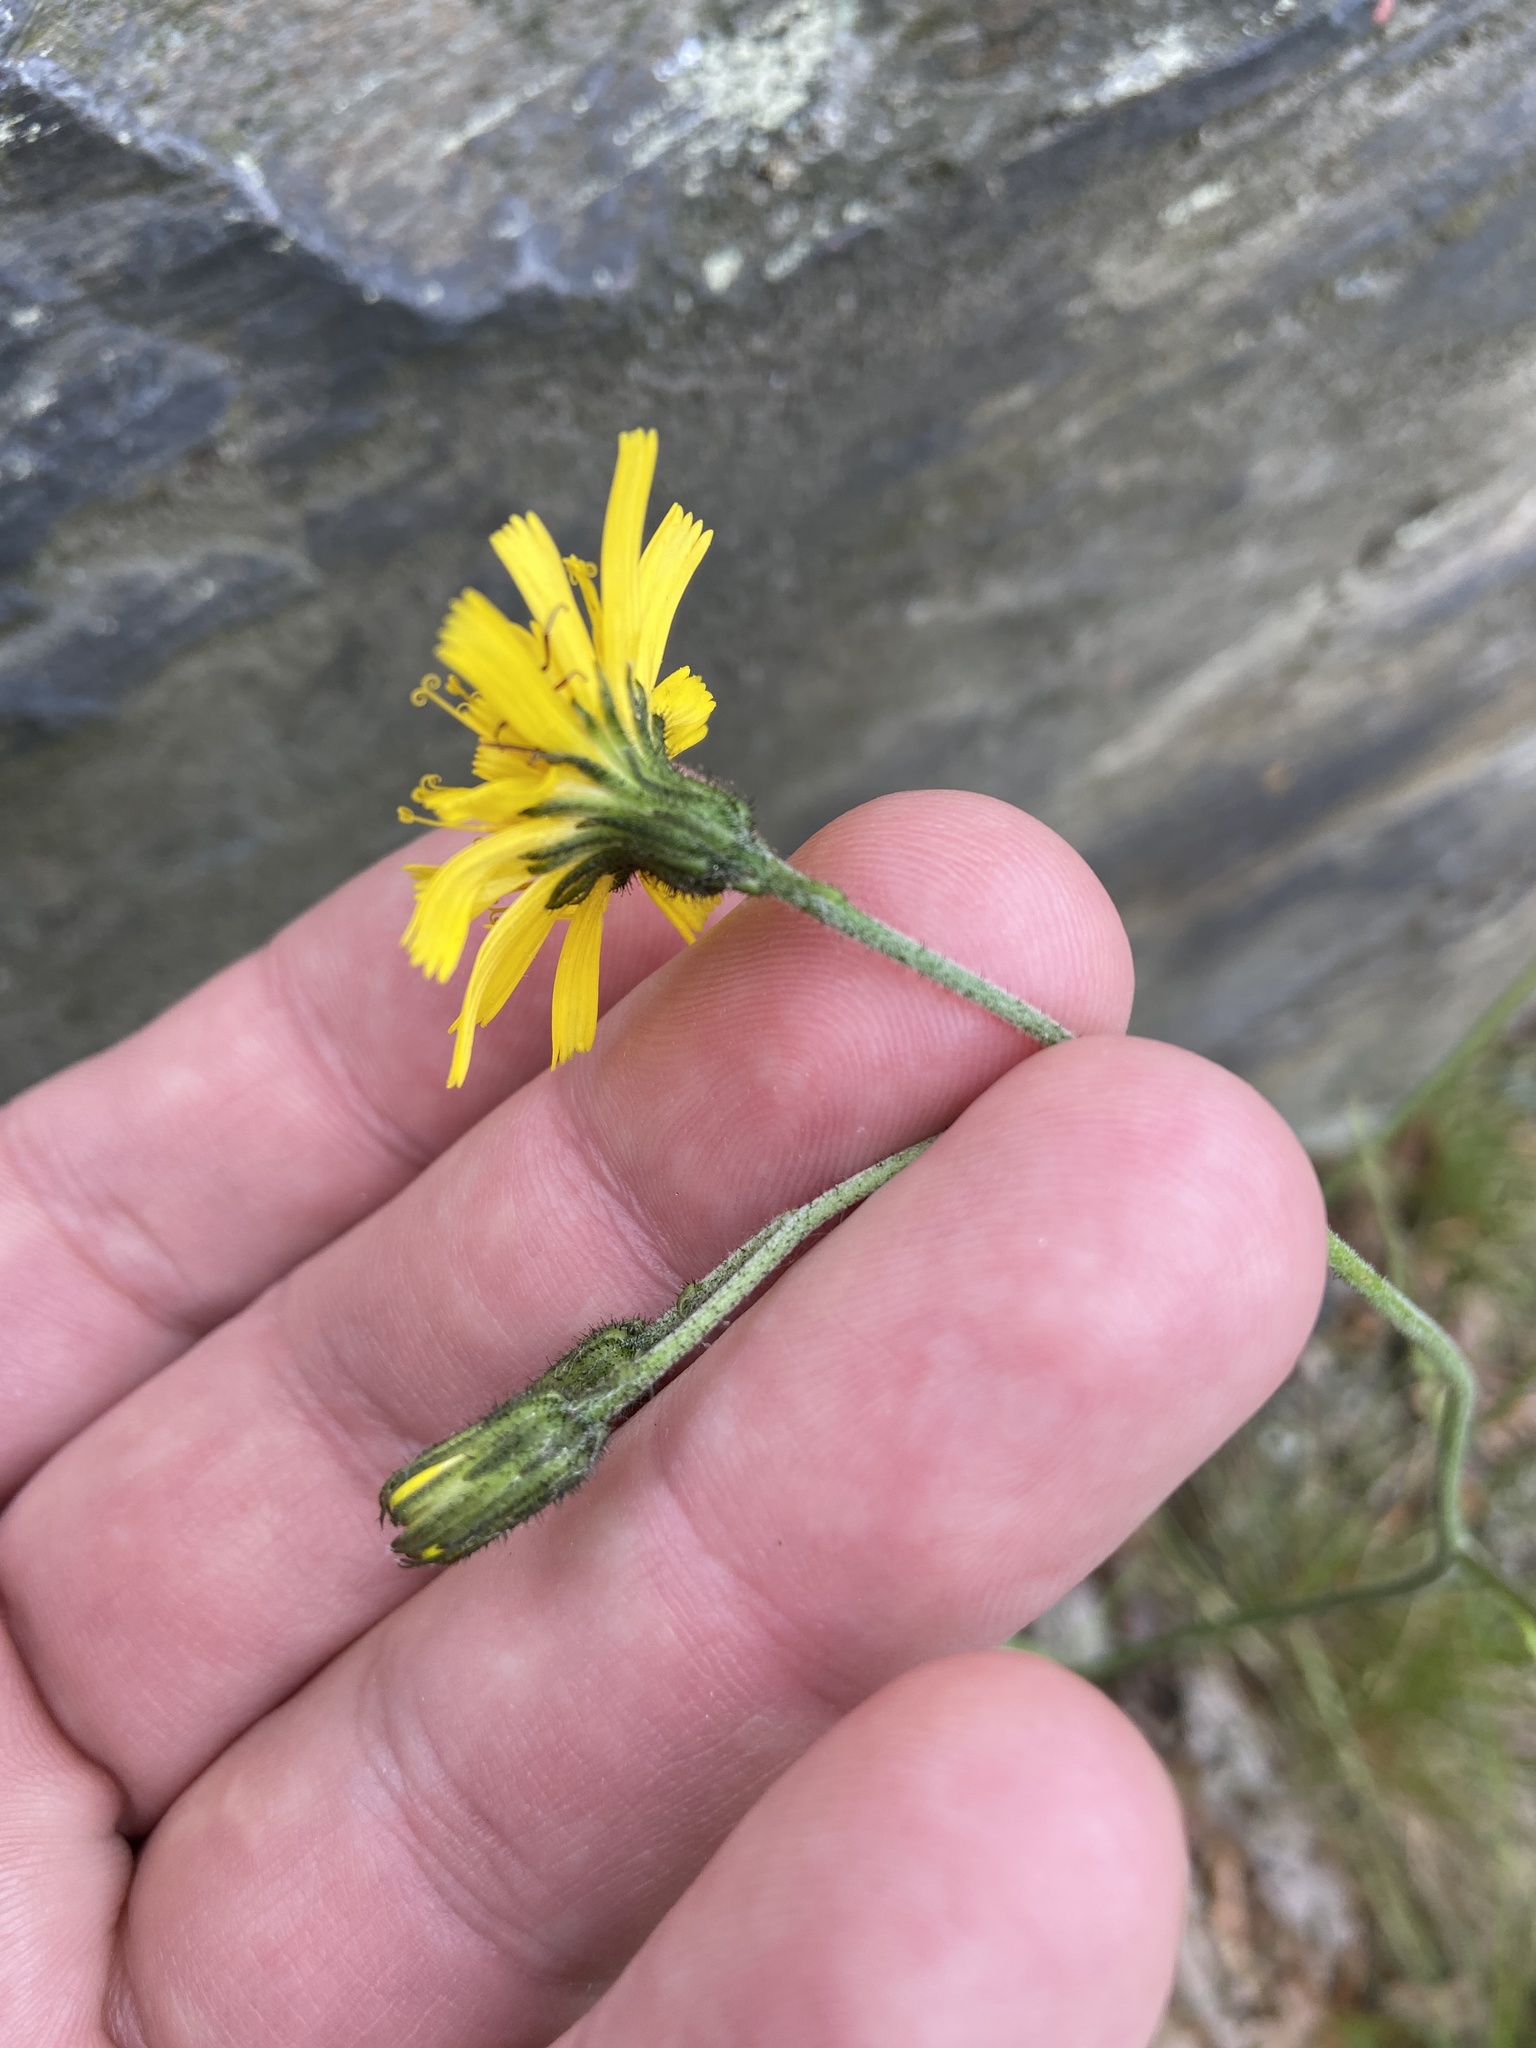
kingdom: Plantae
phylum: Tracheophyta
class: Magnoliopsida
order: Asterales
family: Asteraceae
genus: Hieracium
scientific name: Hieracium murorum
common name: Wall hawkweed
